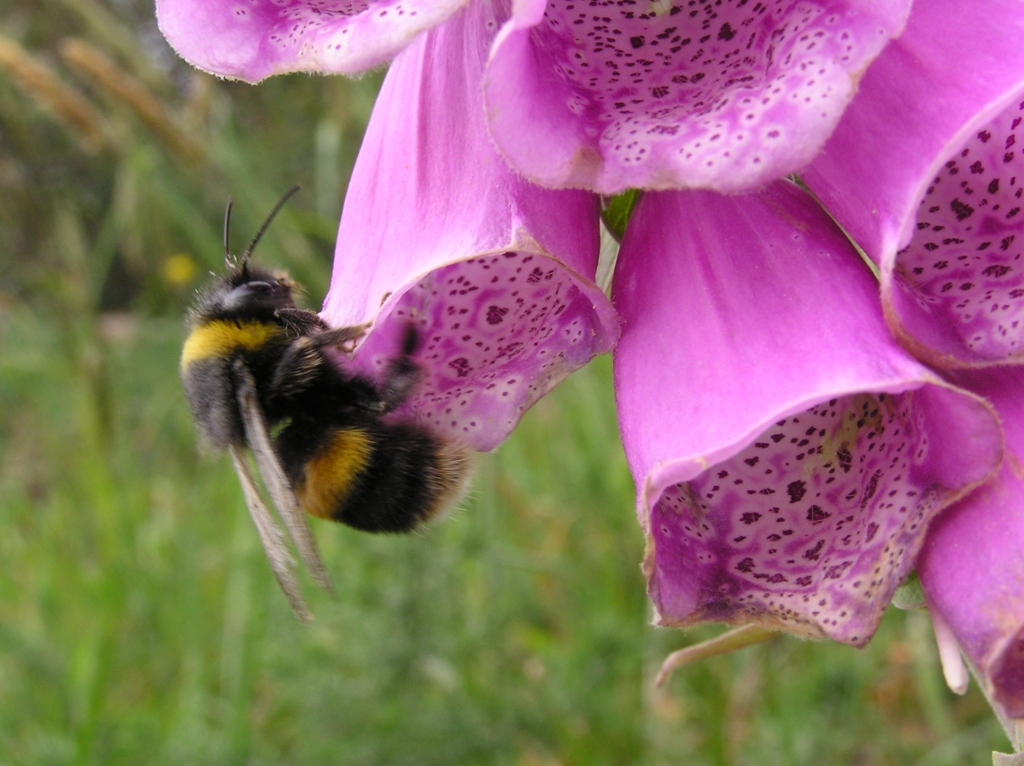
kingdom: Animalia
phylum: Arthropoda
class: Insecta
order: Hymenoptera
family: Apidae
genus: Bombus
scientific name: Bombus terrestris
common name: Buff-tailed bumblebee
